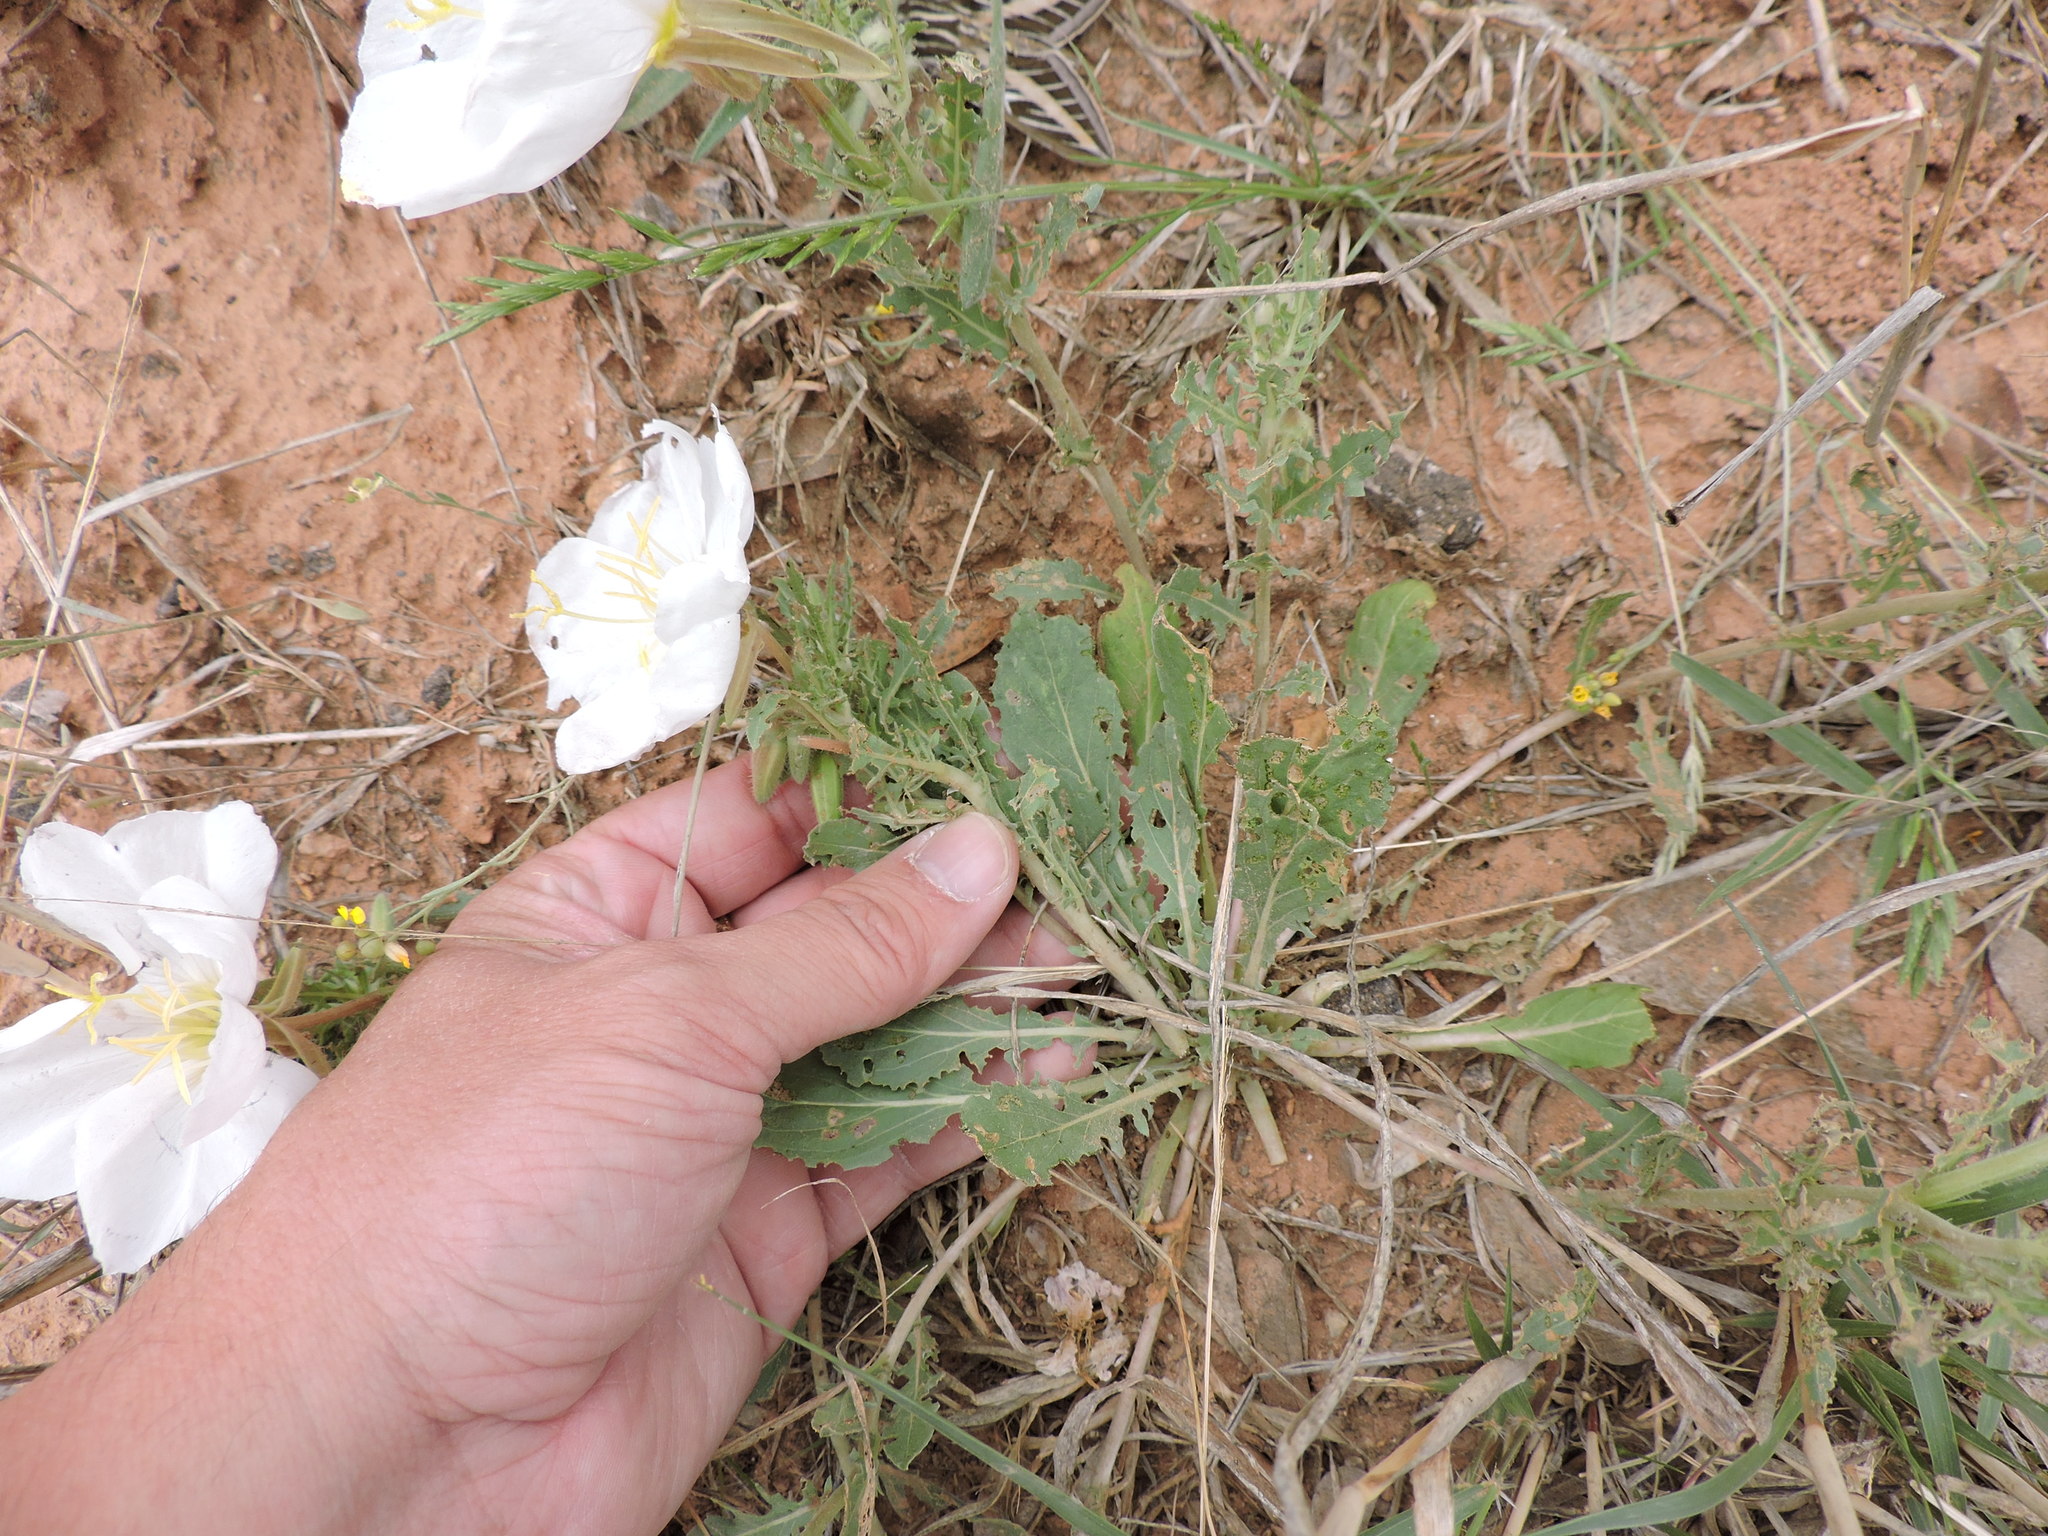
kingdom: Plantae
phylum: Tracheophyta
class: Magnoliopsida
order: Myrtales
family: Onagraceae
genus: Oenothera
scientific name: Oenothera albicaulis
